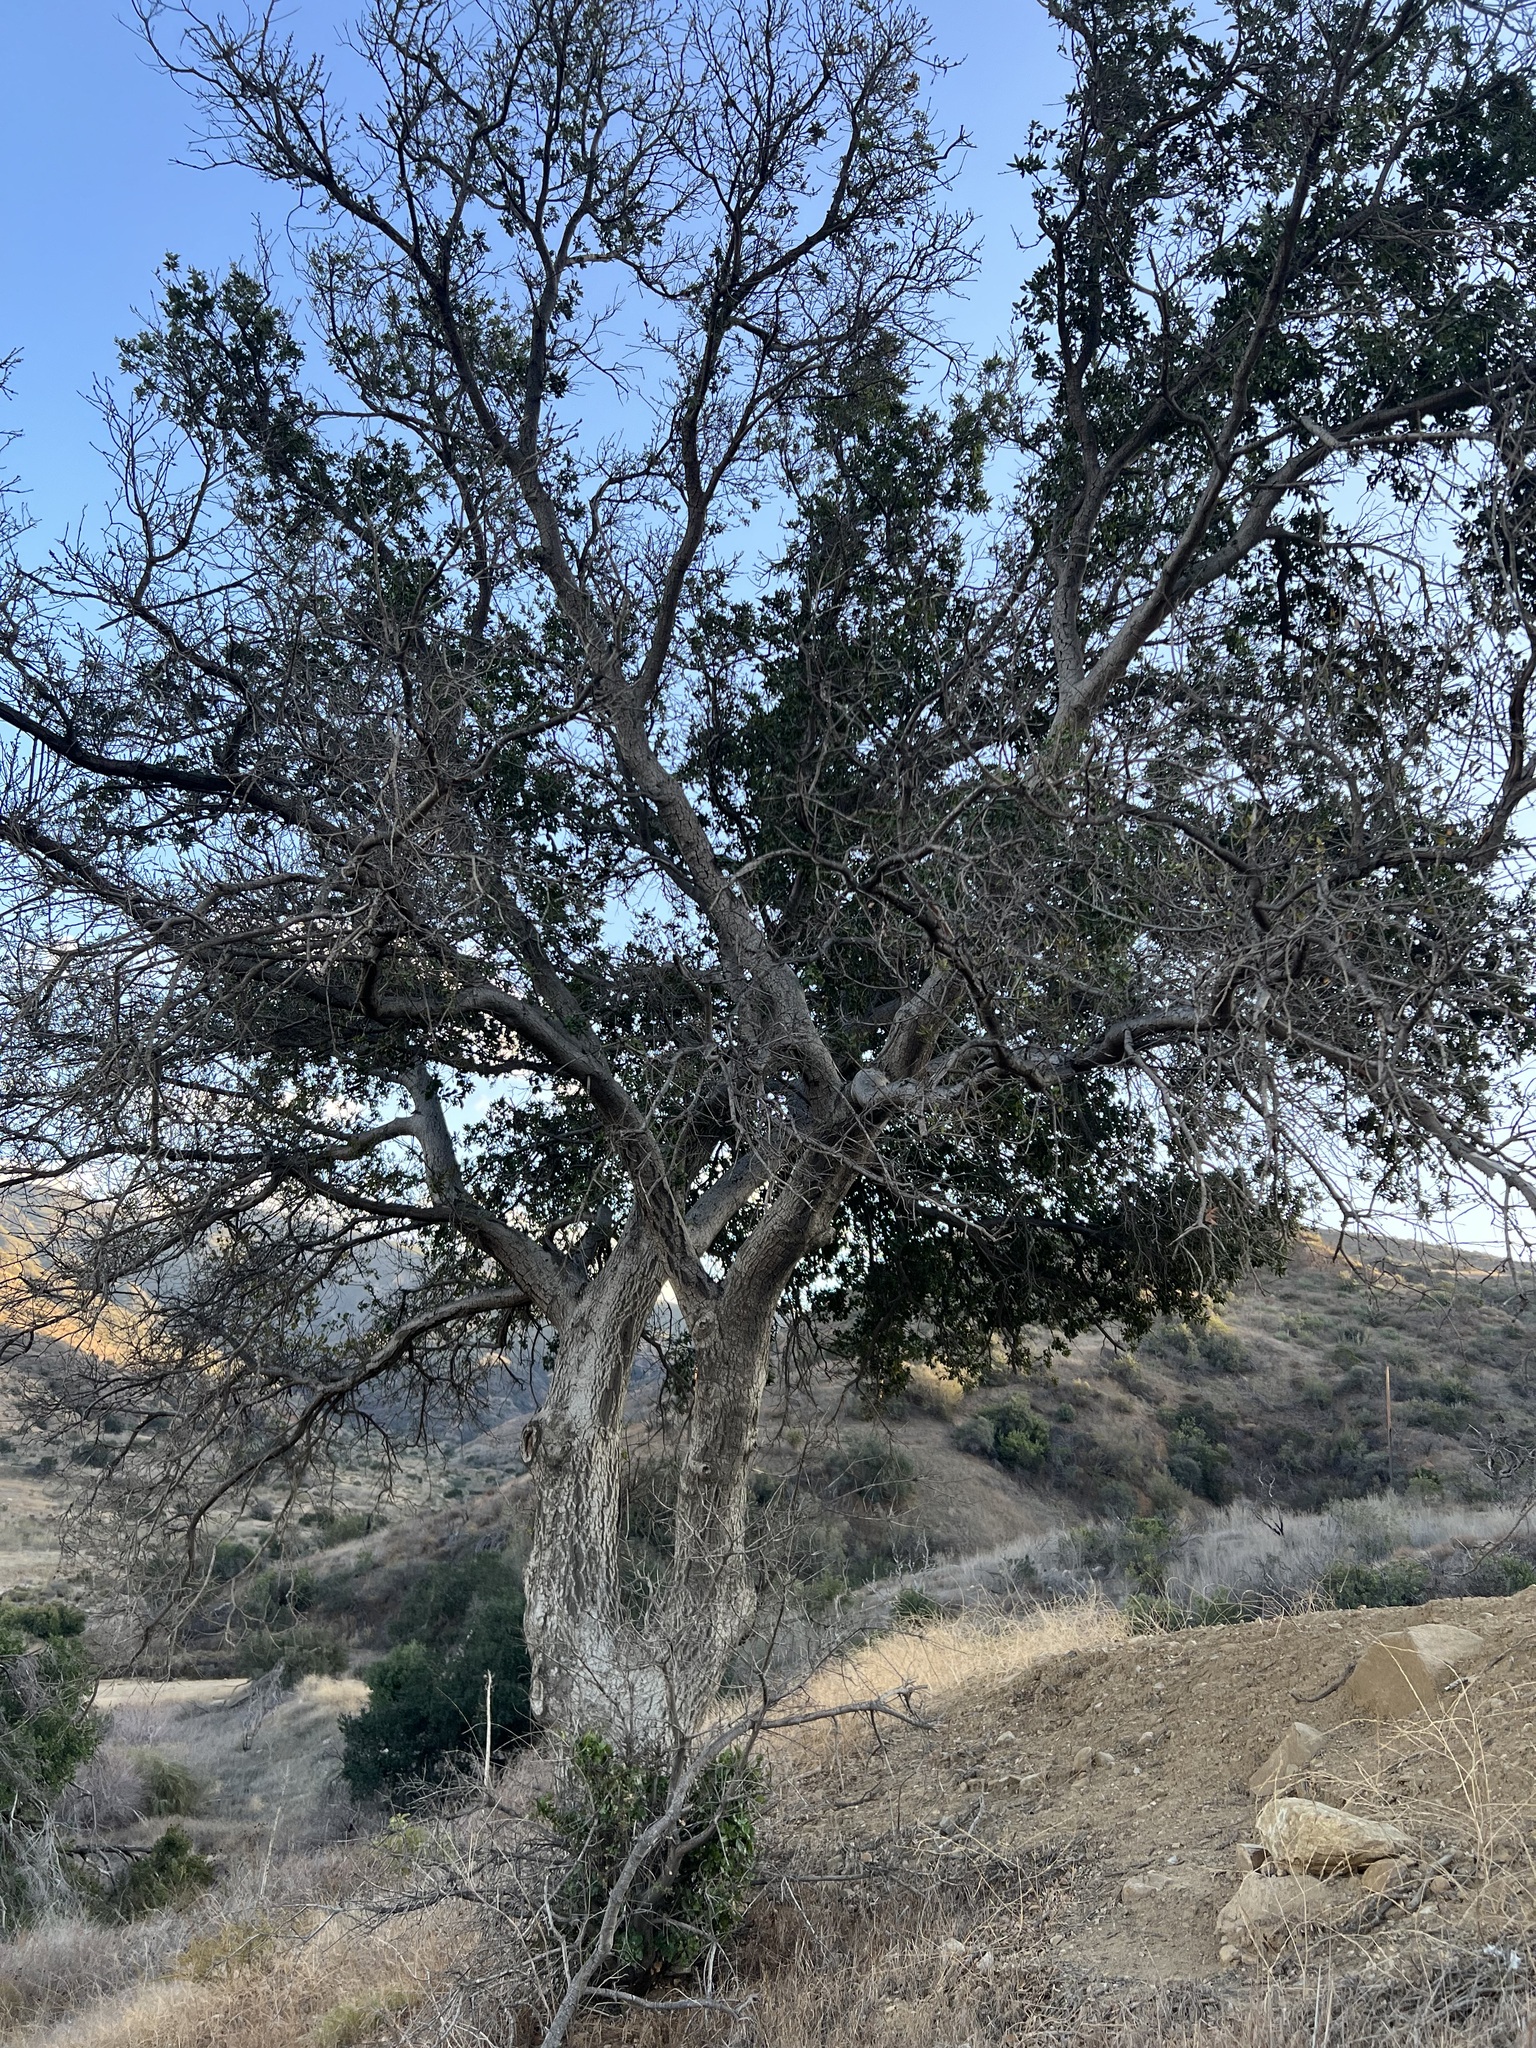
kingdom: Plantae
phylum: Tracheophyta
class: Magnoliopsida
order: Fagales
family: Fagaceae
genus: Quercus
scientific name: Quercus agrifolia
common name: California live oak
